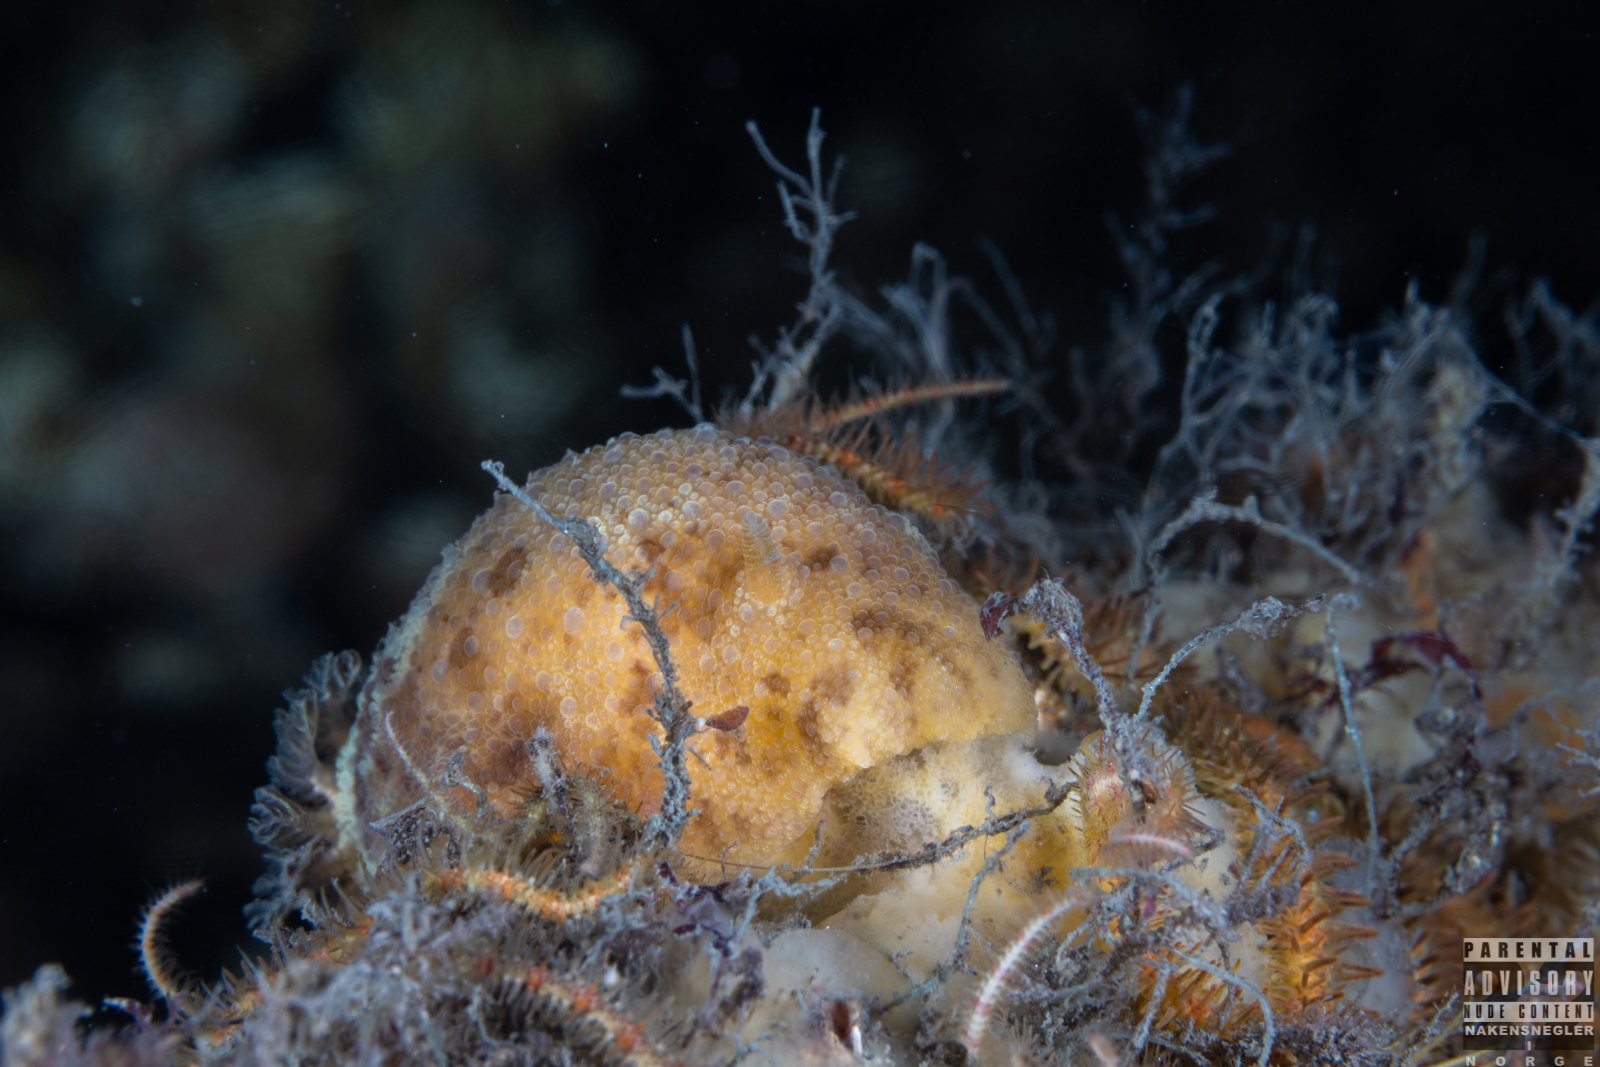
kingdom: Animalia
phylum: Mollusca
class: Gastropoda
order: Nudibranchia
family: Dorididae
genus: Doris
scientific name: Doris pseudoargus
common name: Sea lemon
